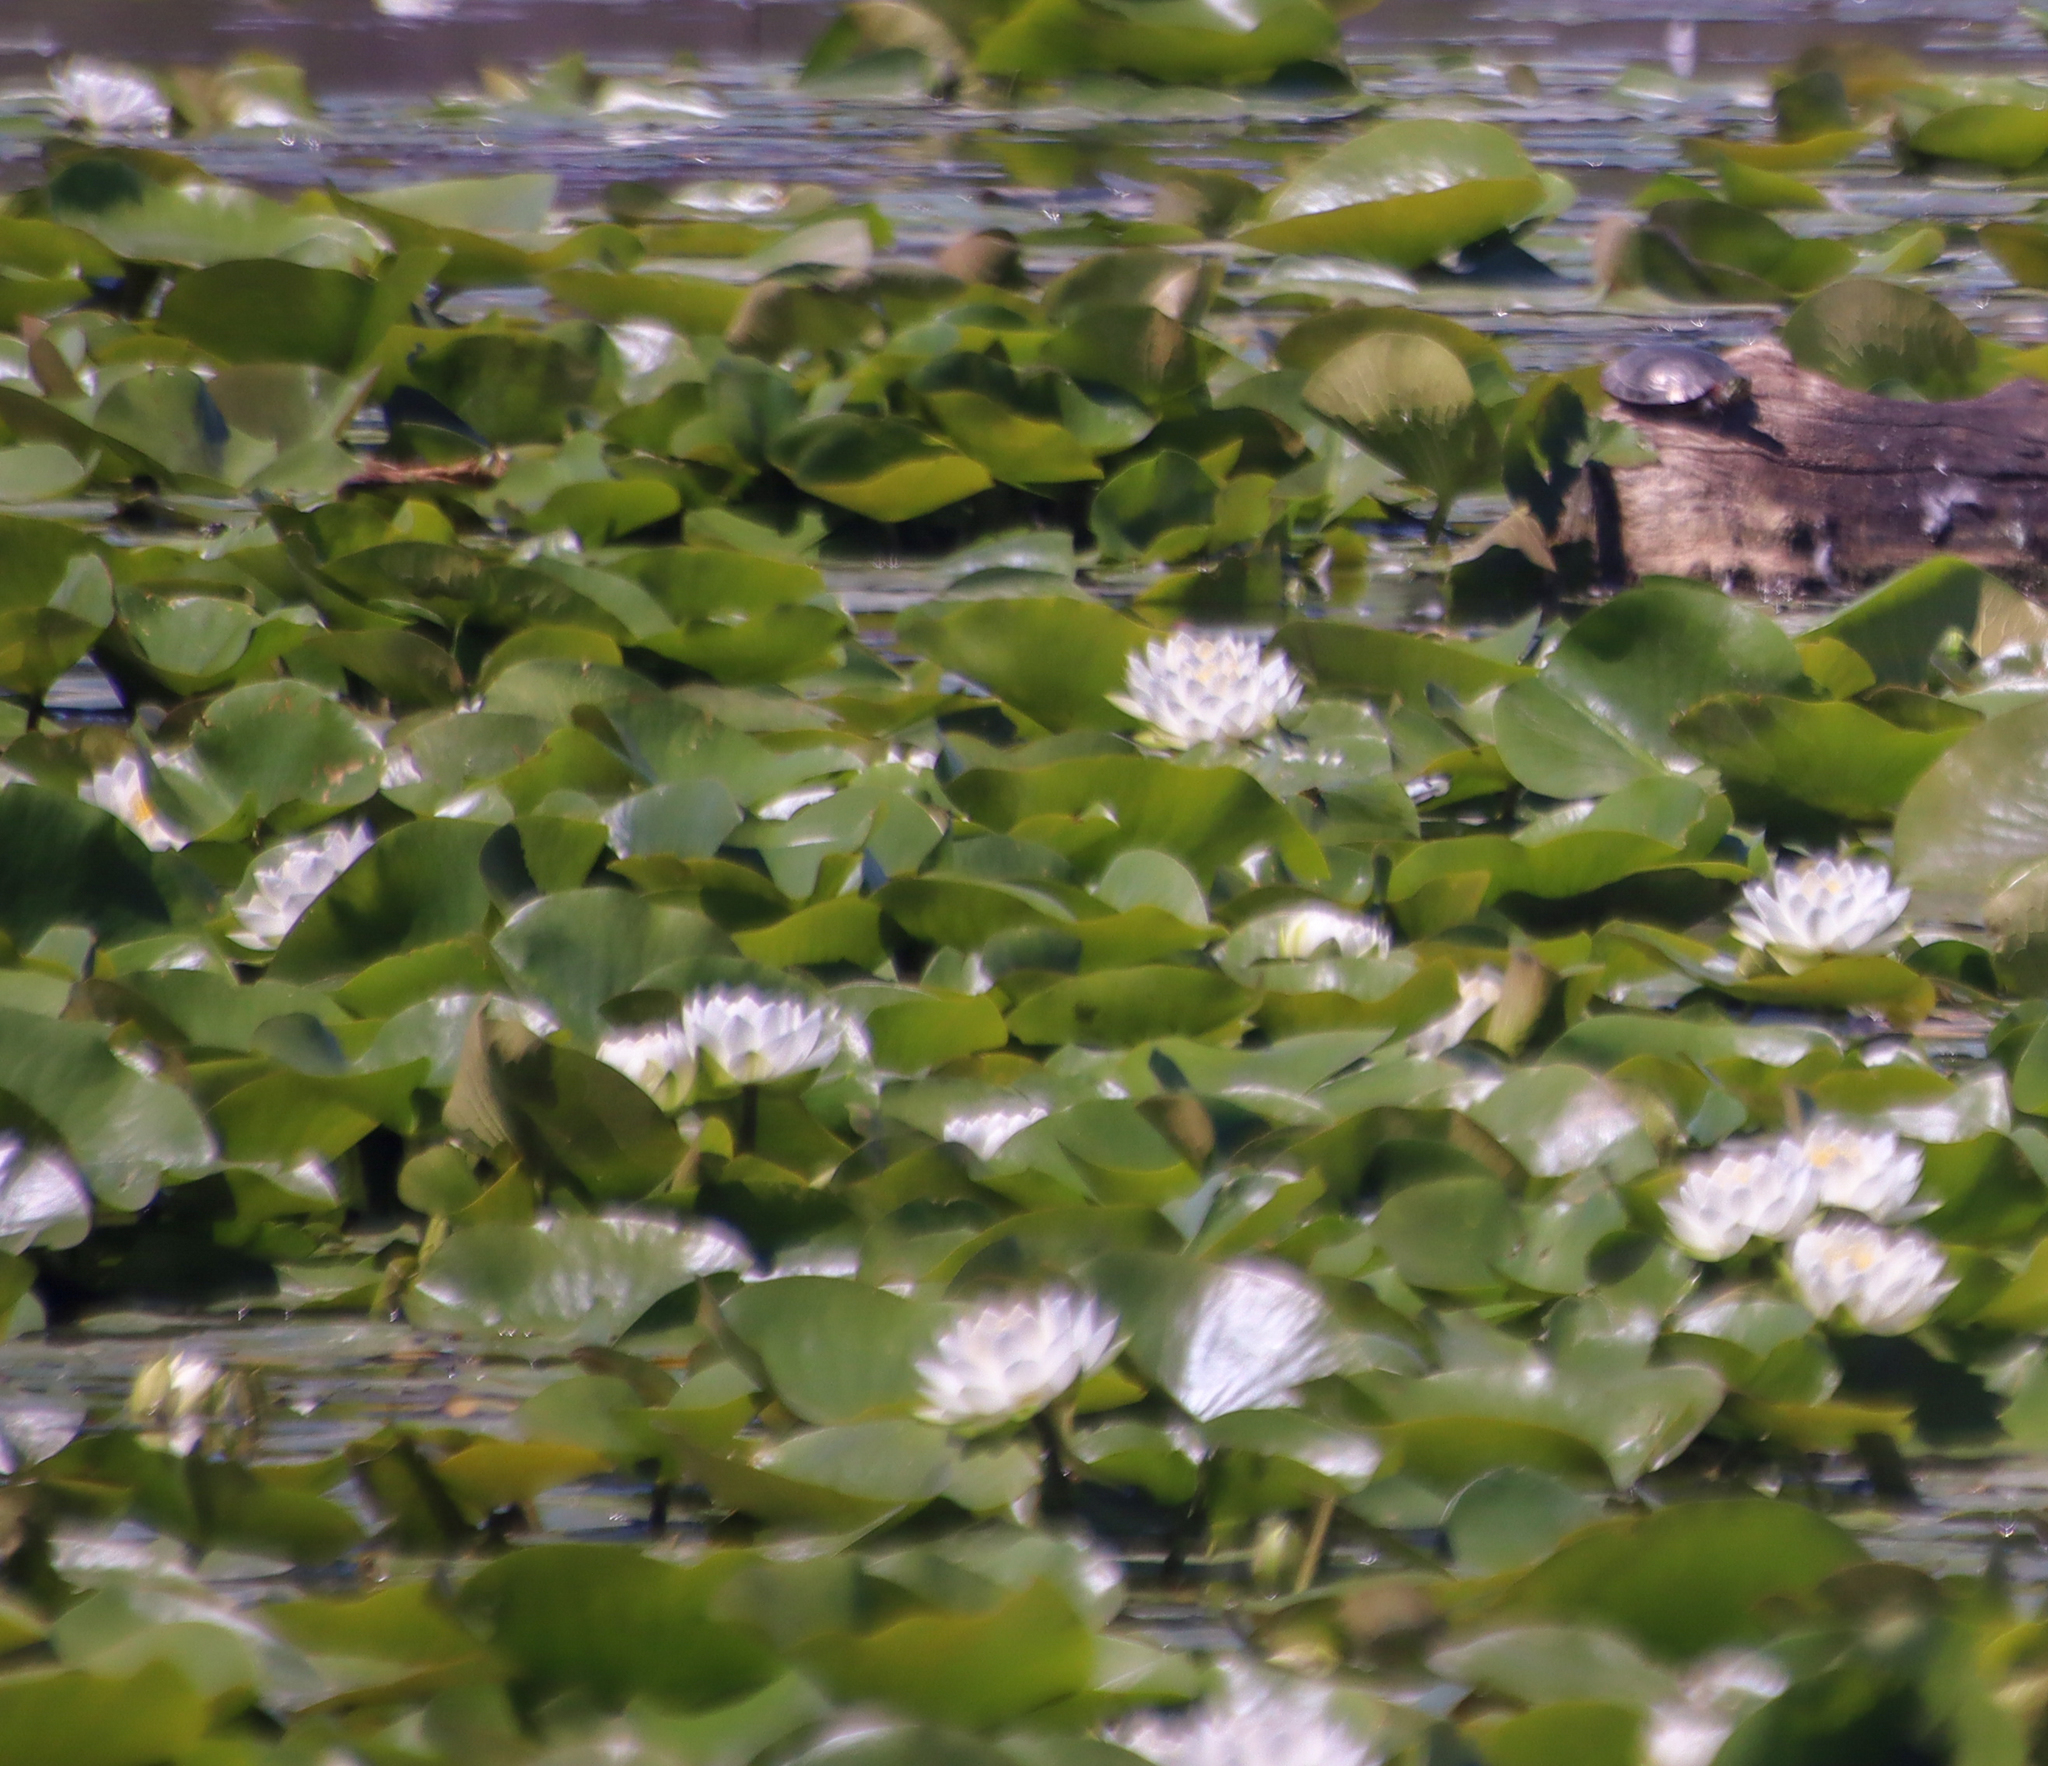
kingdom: Animalia
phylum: Chordata
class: Testudines
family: Emydidae
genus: Chrysemys
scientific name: Chrysemys picta
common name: Painted turtle
